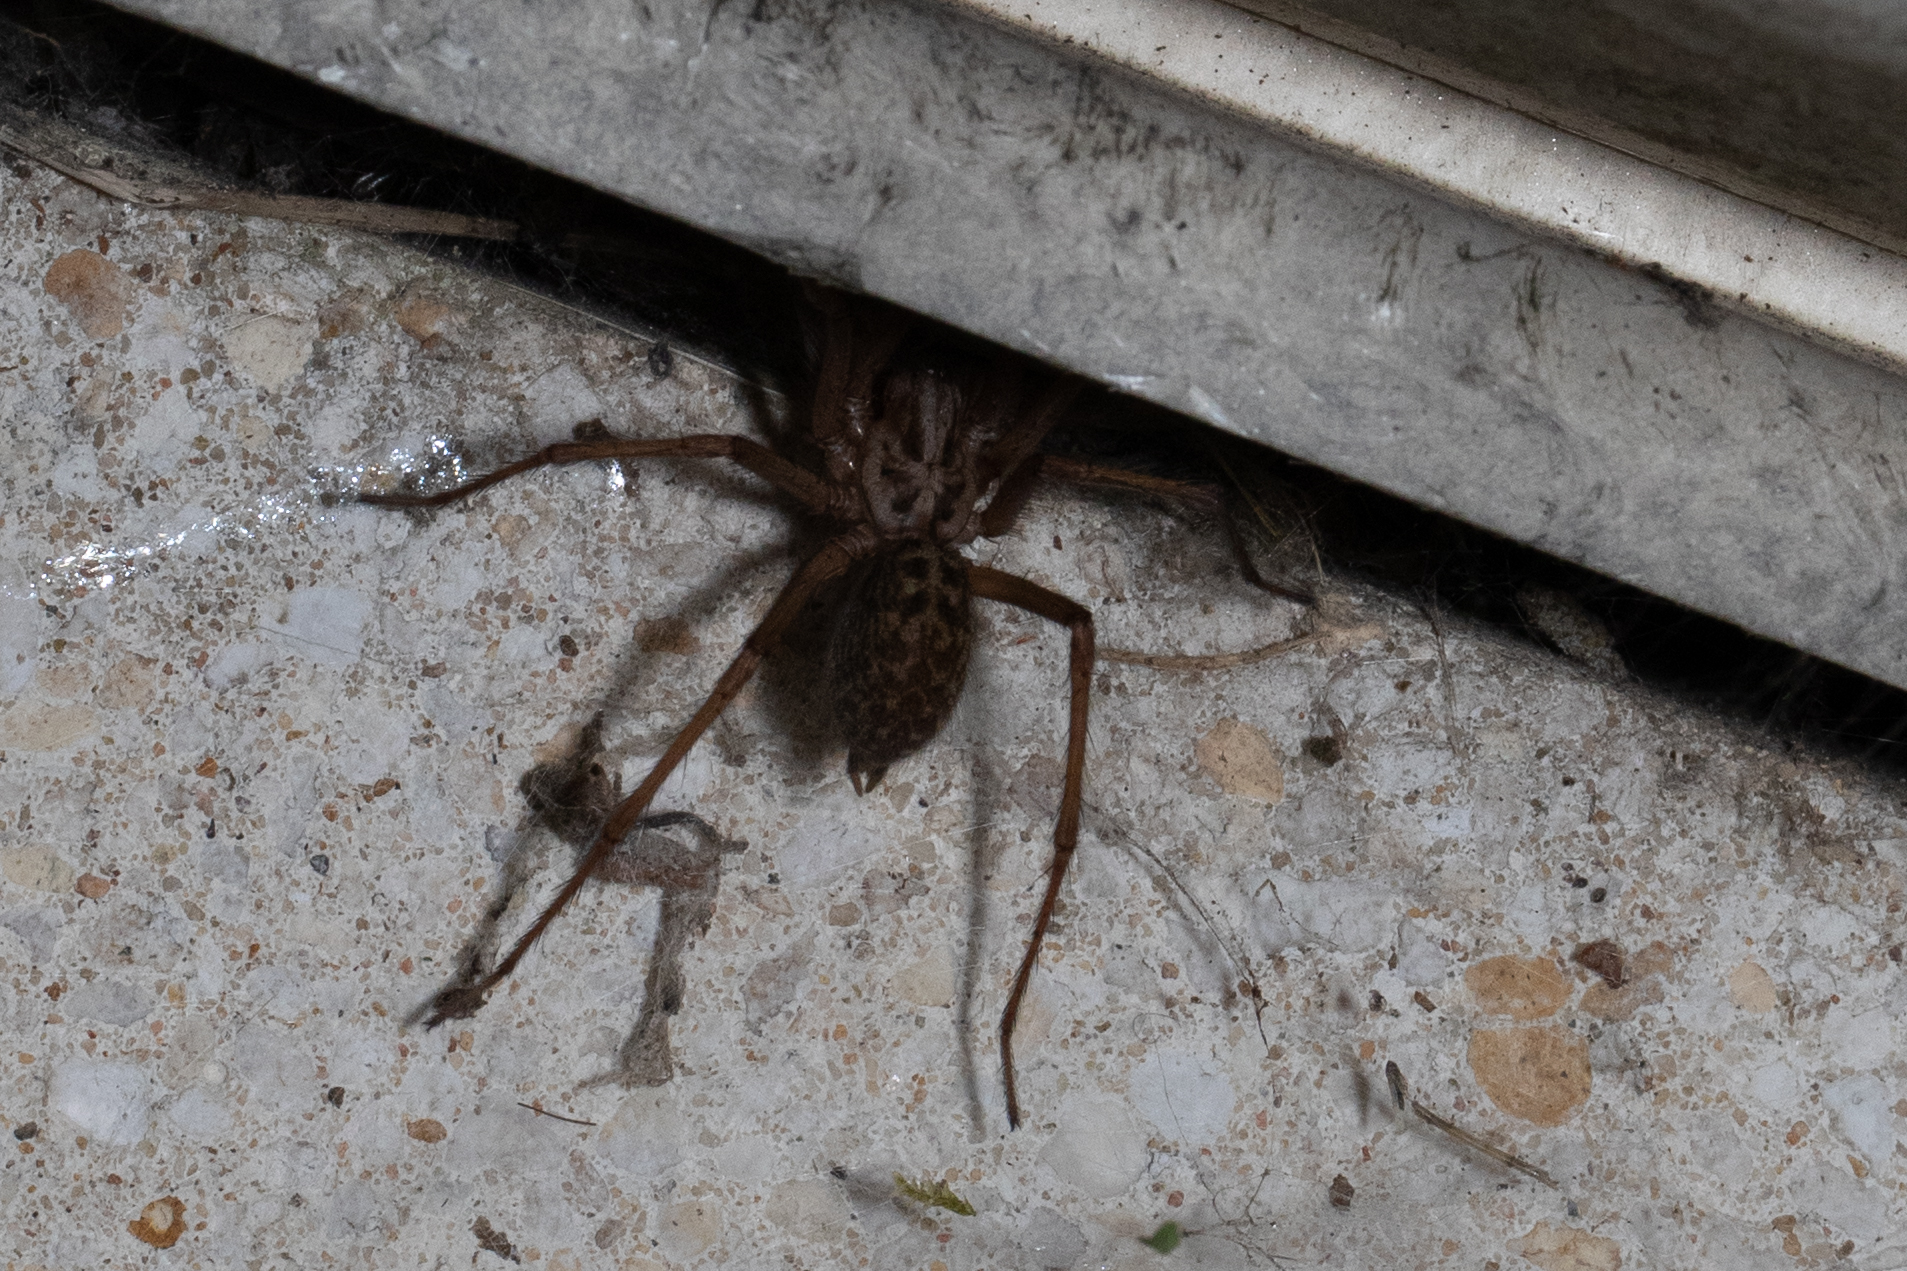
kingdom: Animalia
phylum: Arthropoda
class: Arachnida
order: Araneae
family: Agelenidae
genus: Eratigena
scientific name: Eratigena
